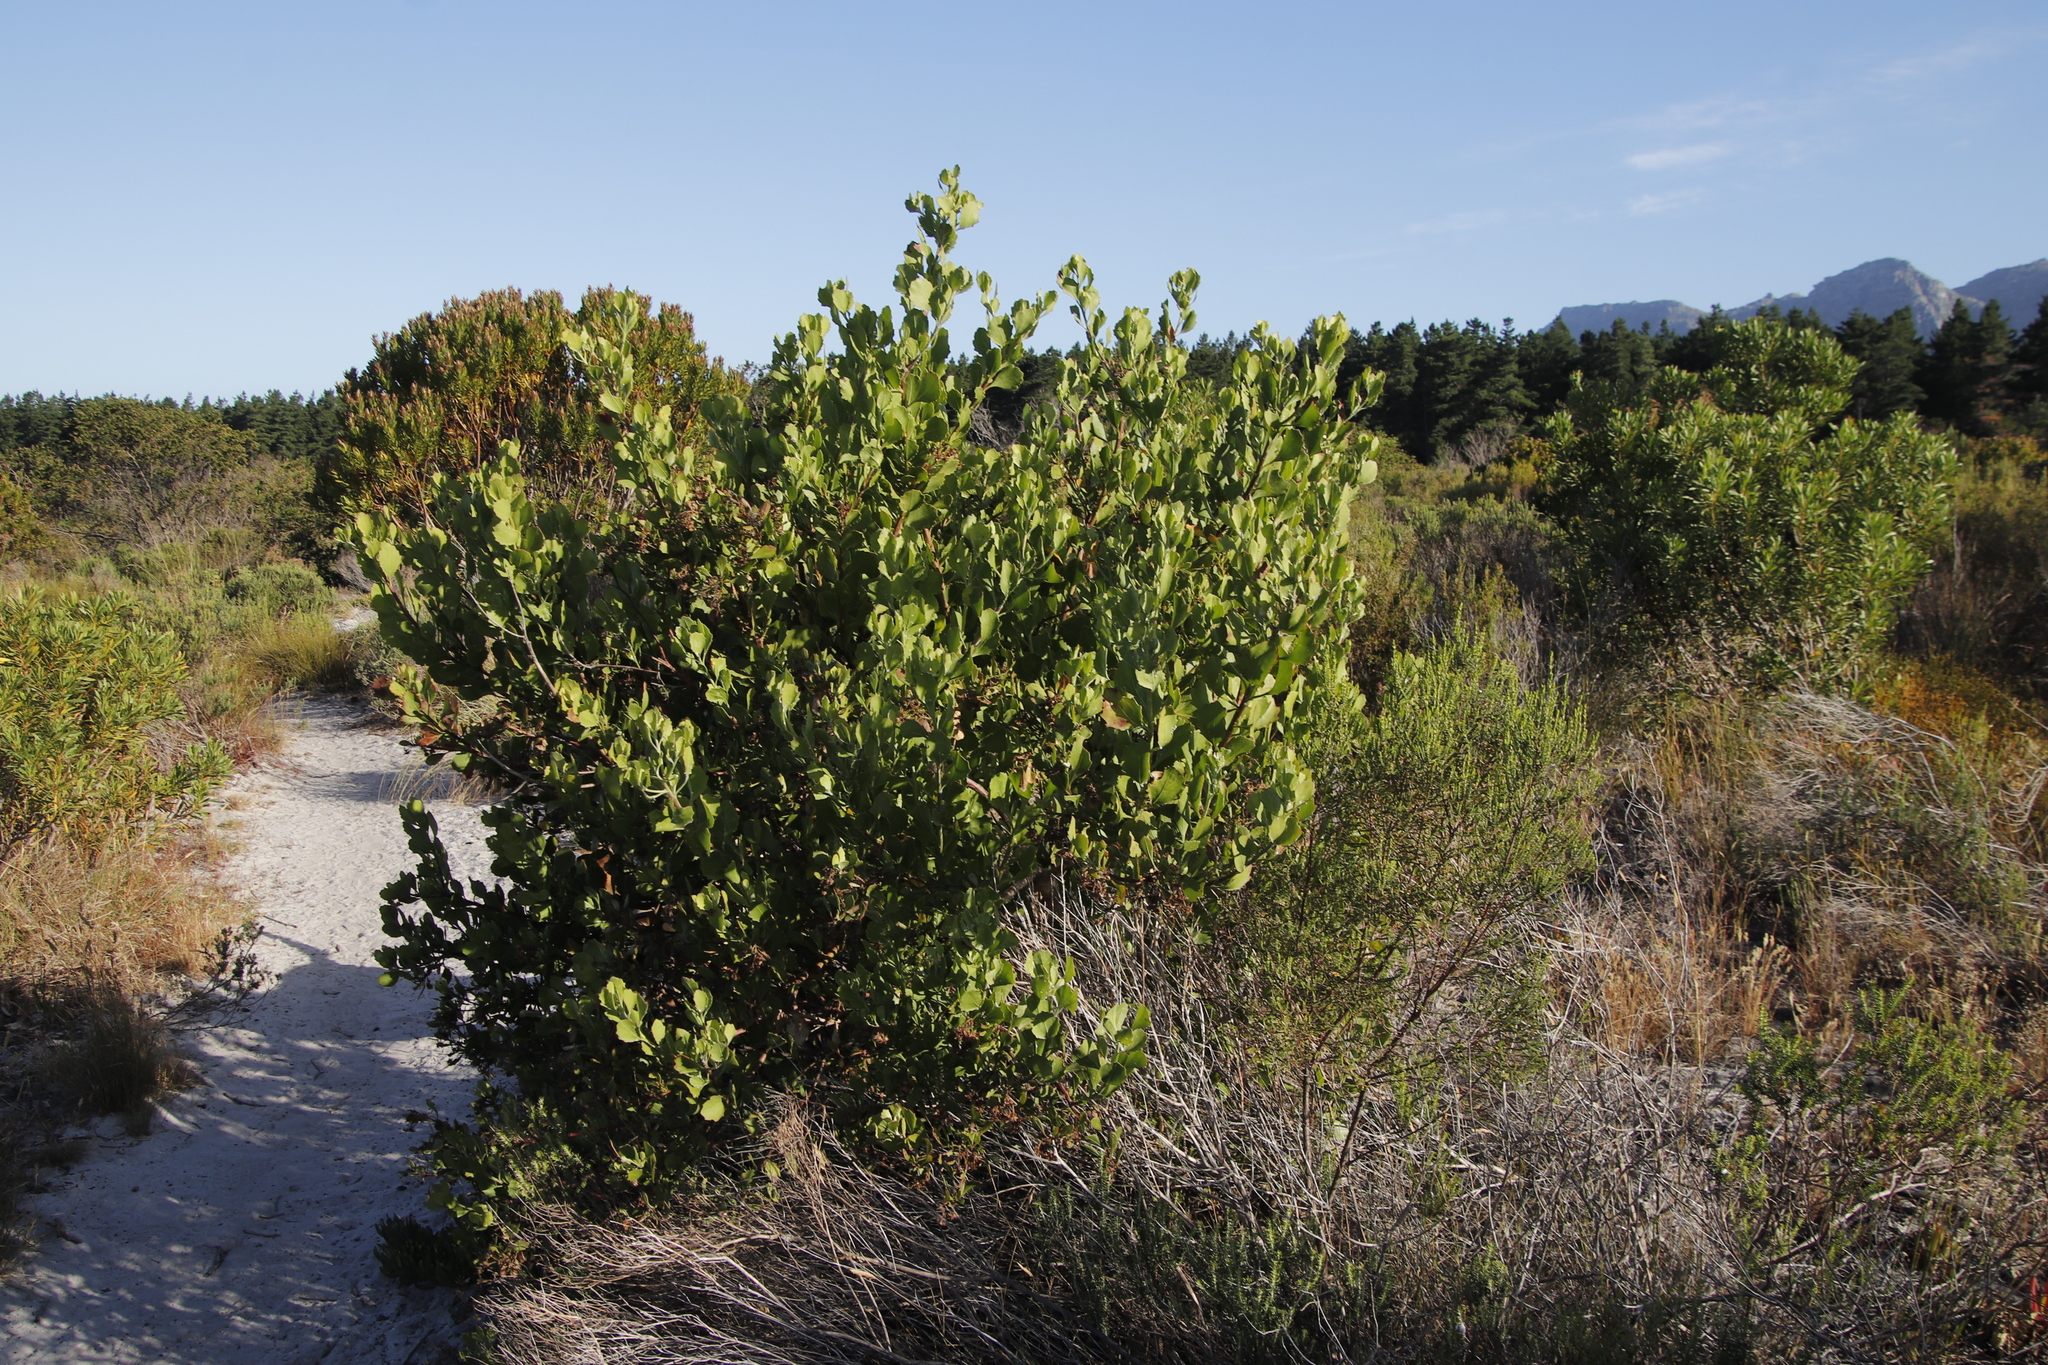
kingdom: Plantae
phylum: Tracheophyta
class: Magnoliopsida
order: Asterales
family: Asteraceae
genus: Osteospermum
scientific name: Osteospermum moniliferum
